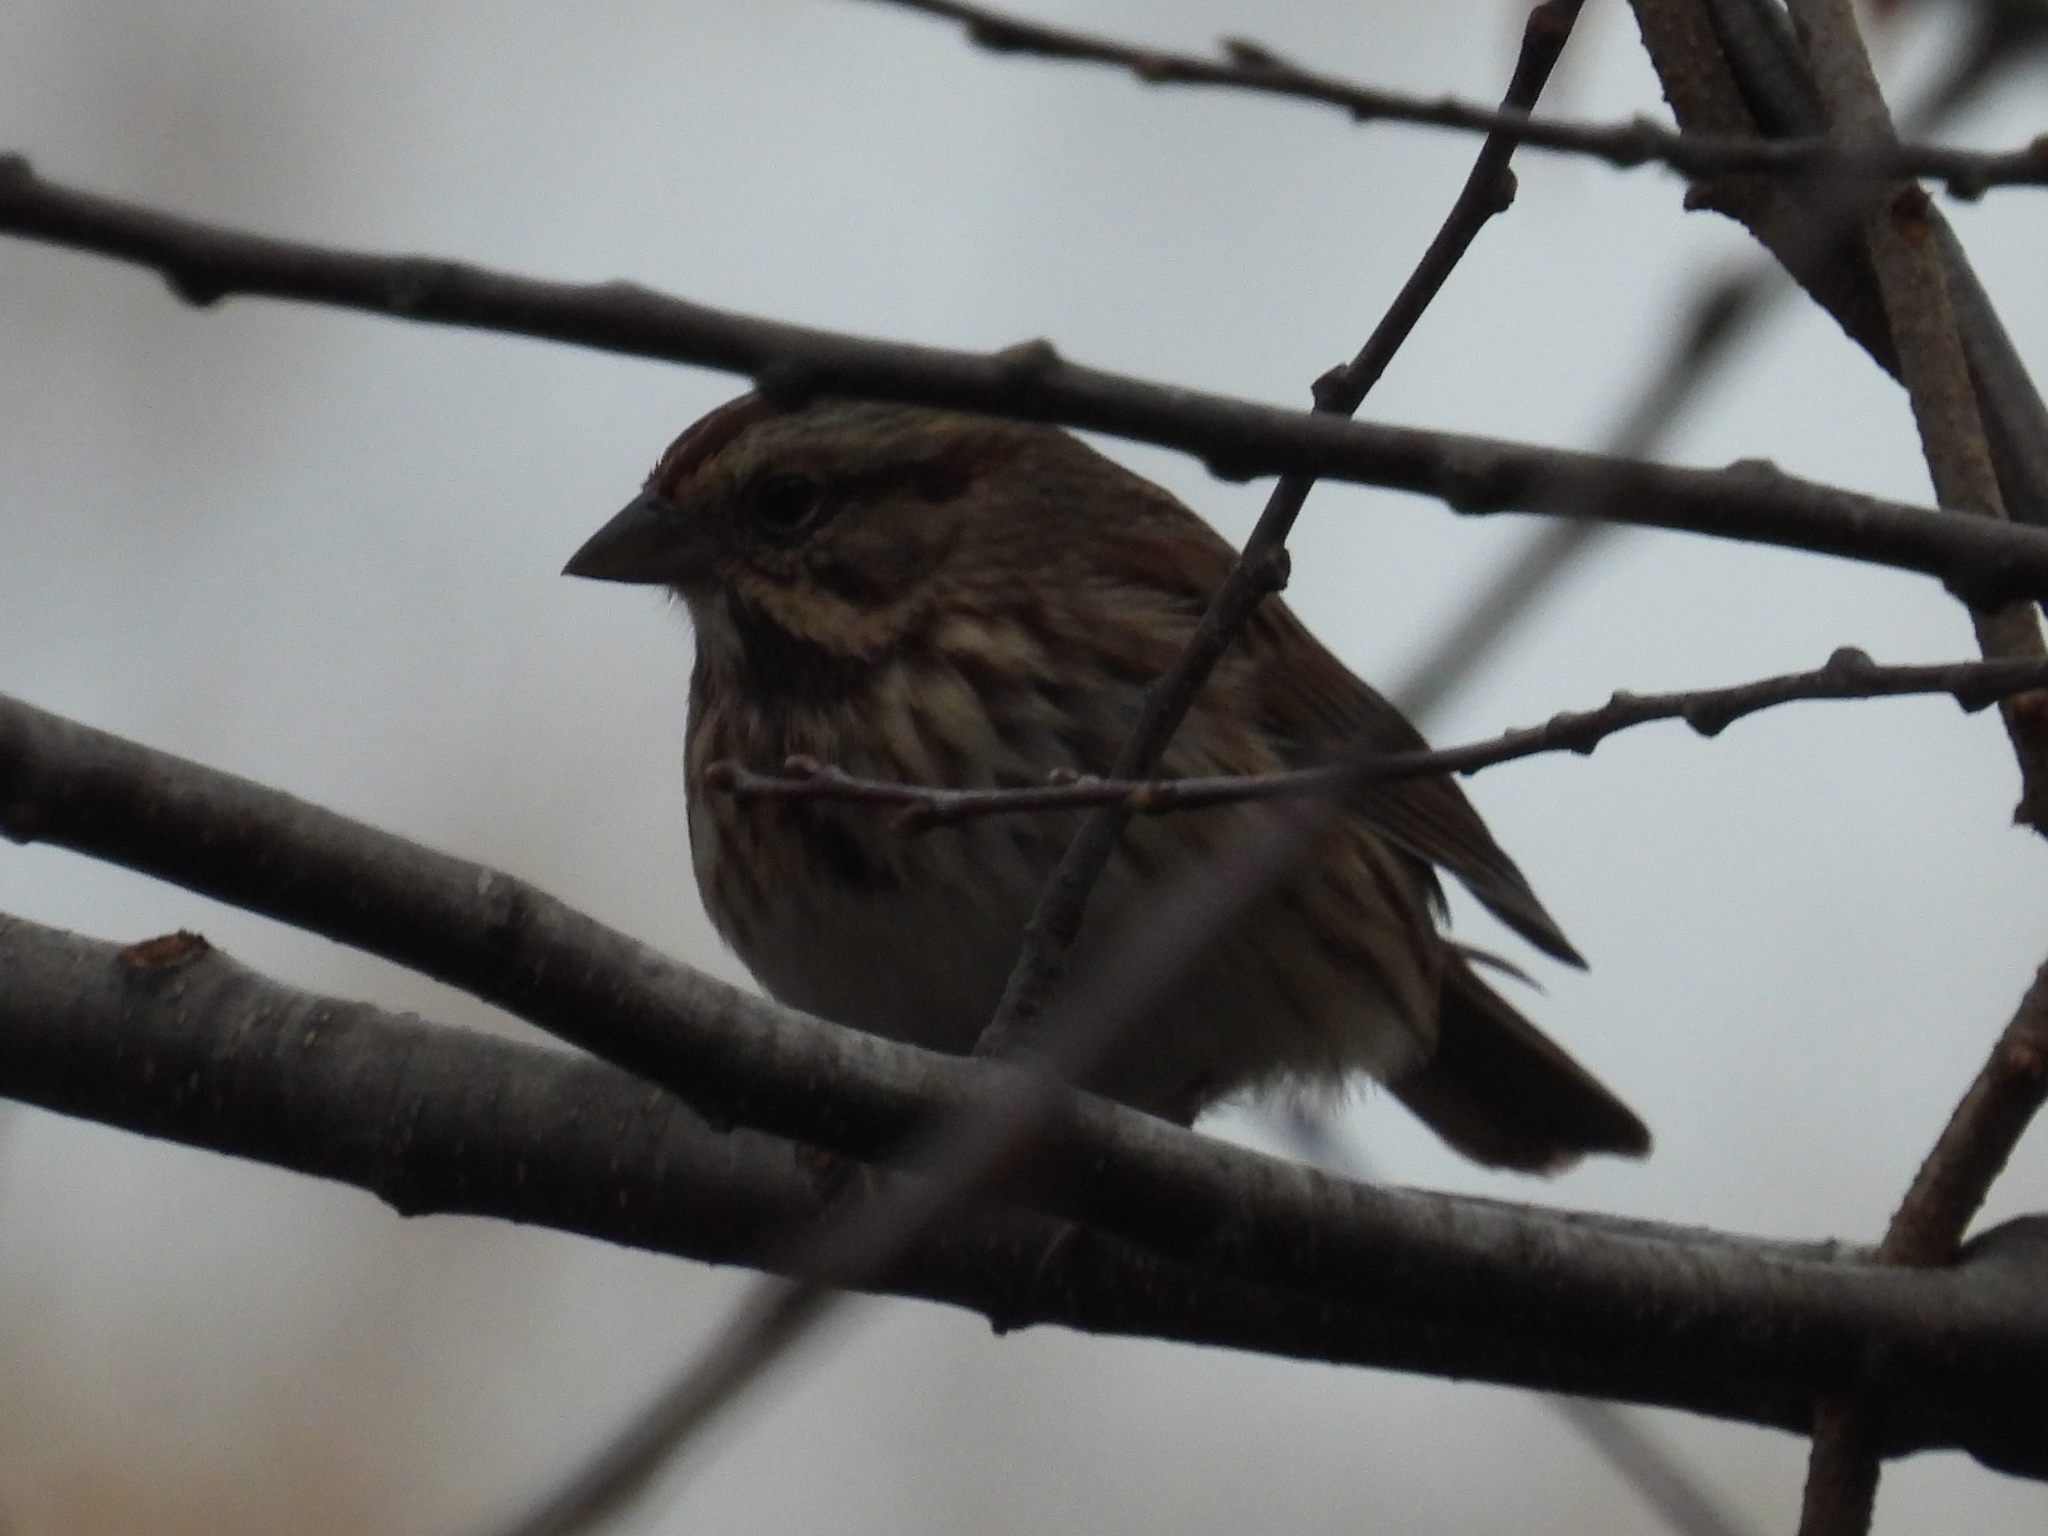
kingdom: Animalia
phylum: Chordata
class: Aves
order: Passeriformes
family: Passerellidae
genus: Melospiza
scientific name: Melospiza melodia
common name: Song sparrow
